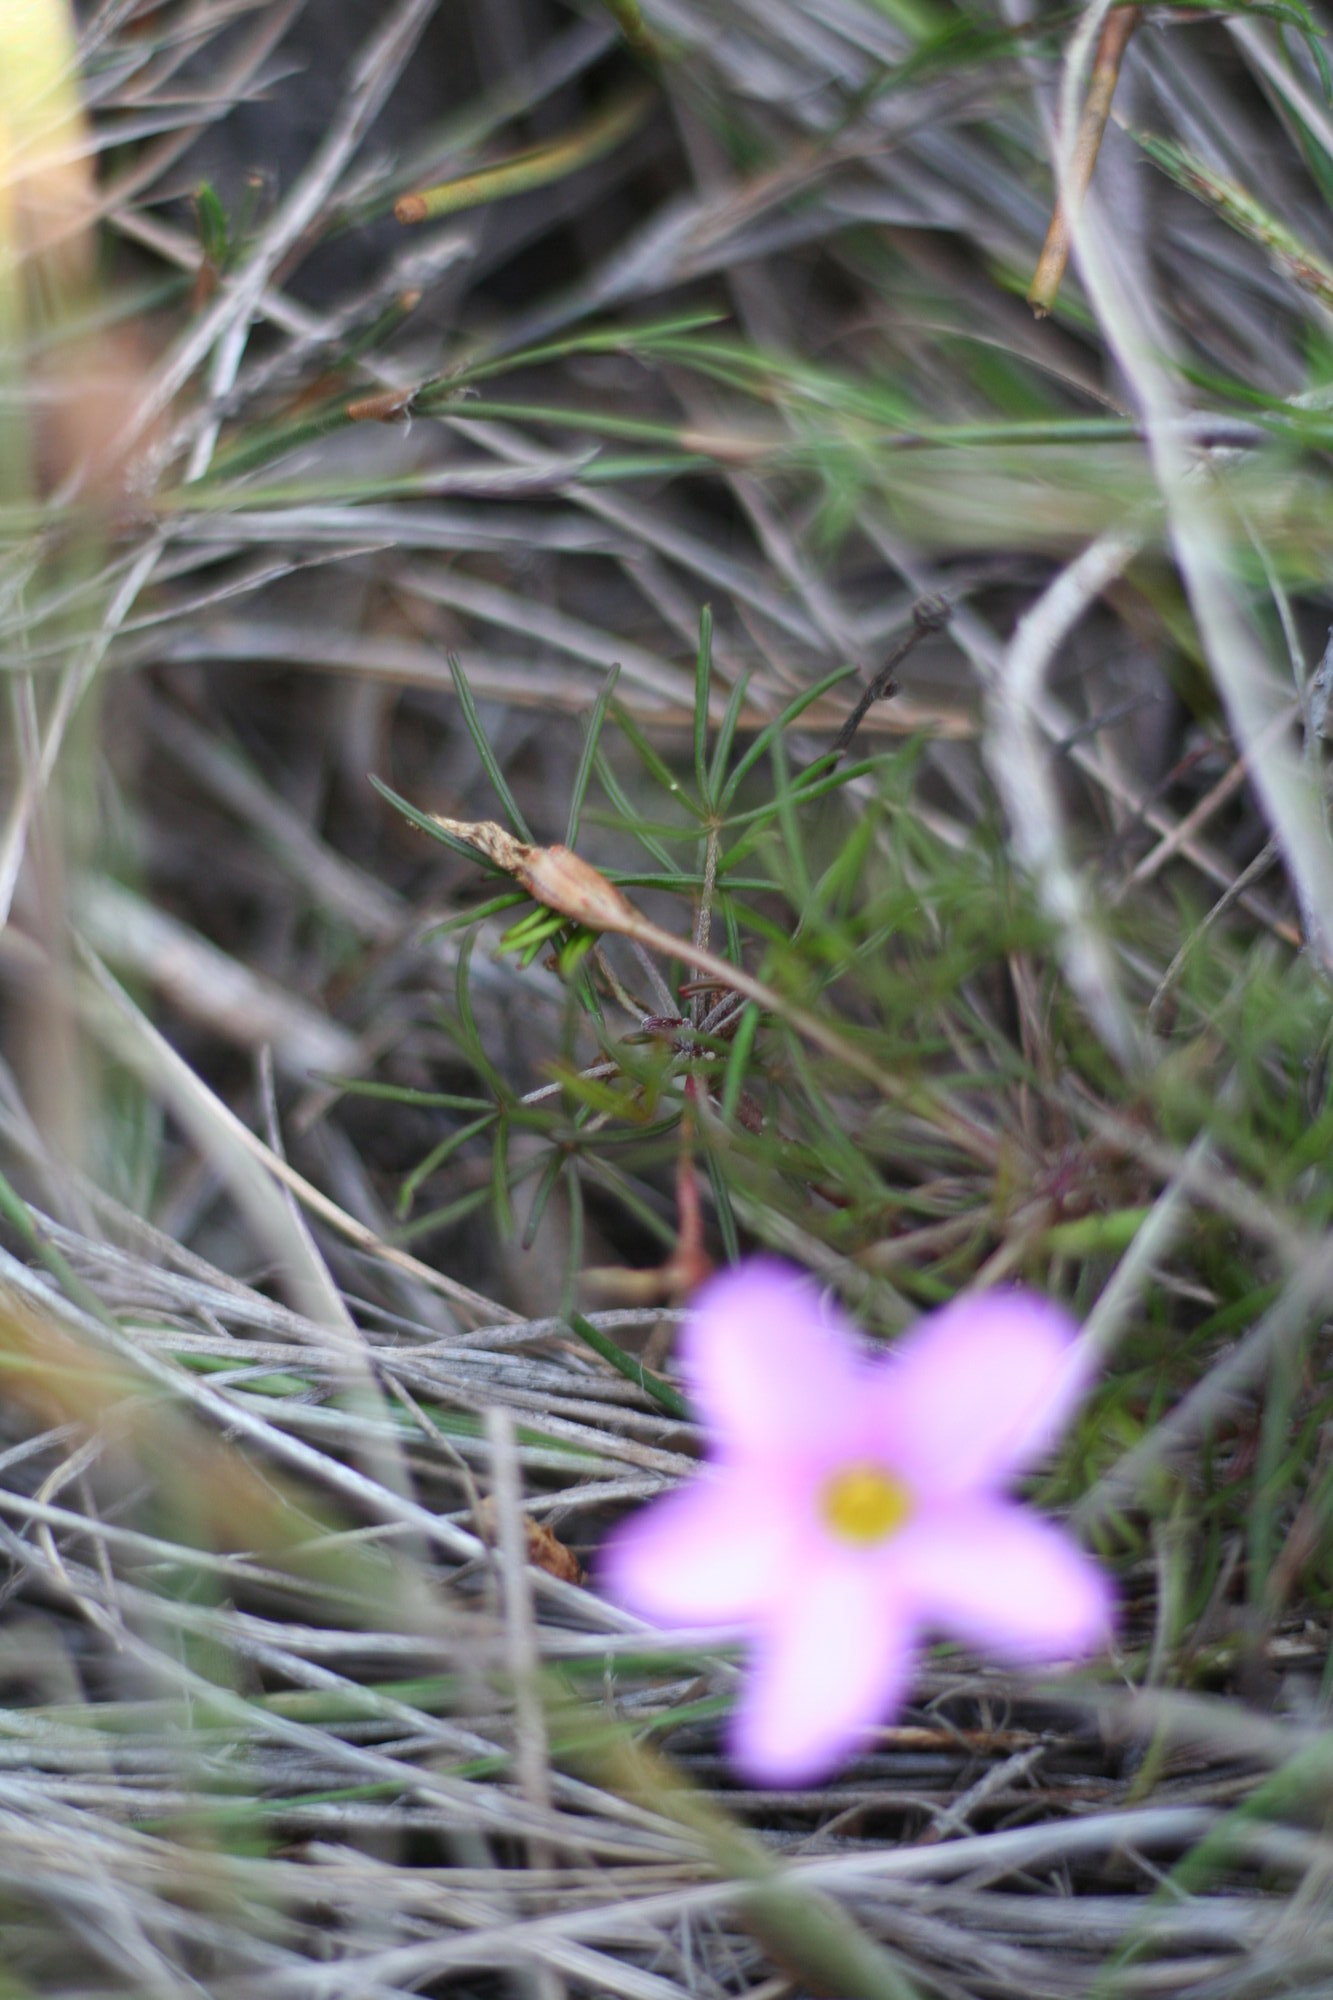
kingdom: Plantae
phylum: Tracheophyta
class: Magnoliopsida
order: Oxalidales
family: Oxalidaceae
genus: Oxalis
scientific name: Oxalis polyphylla
